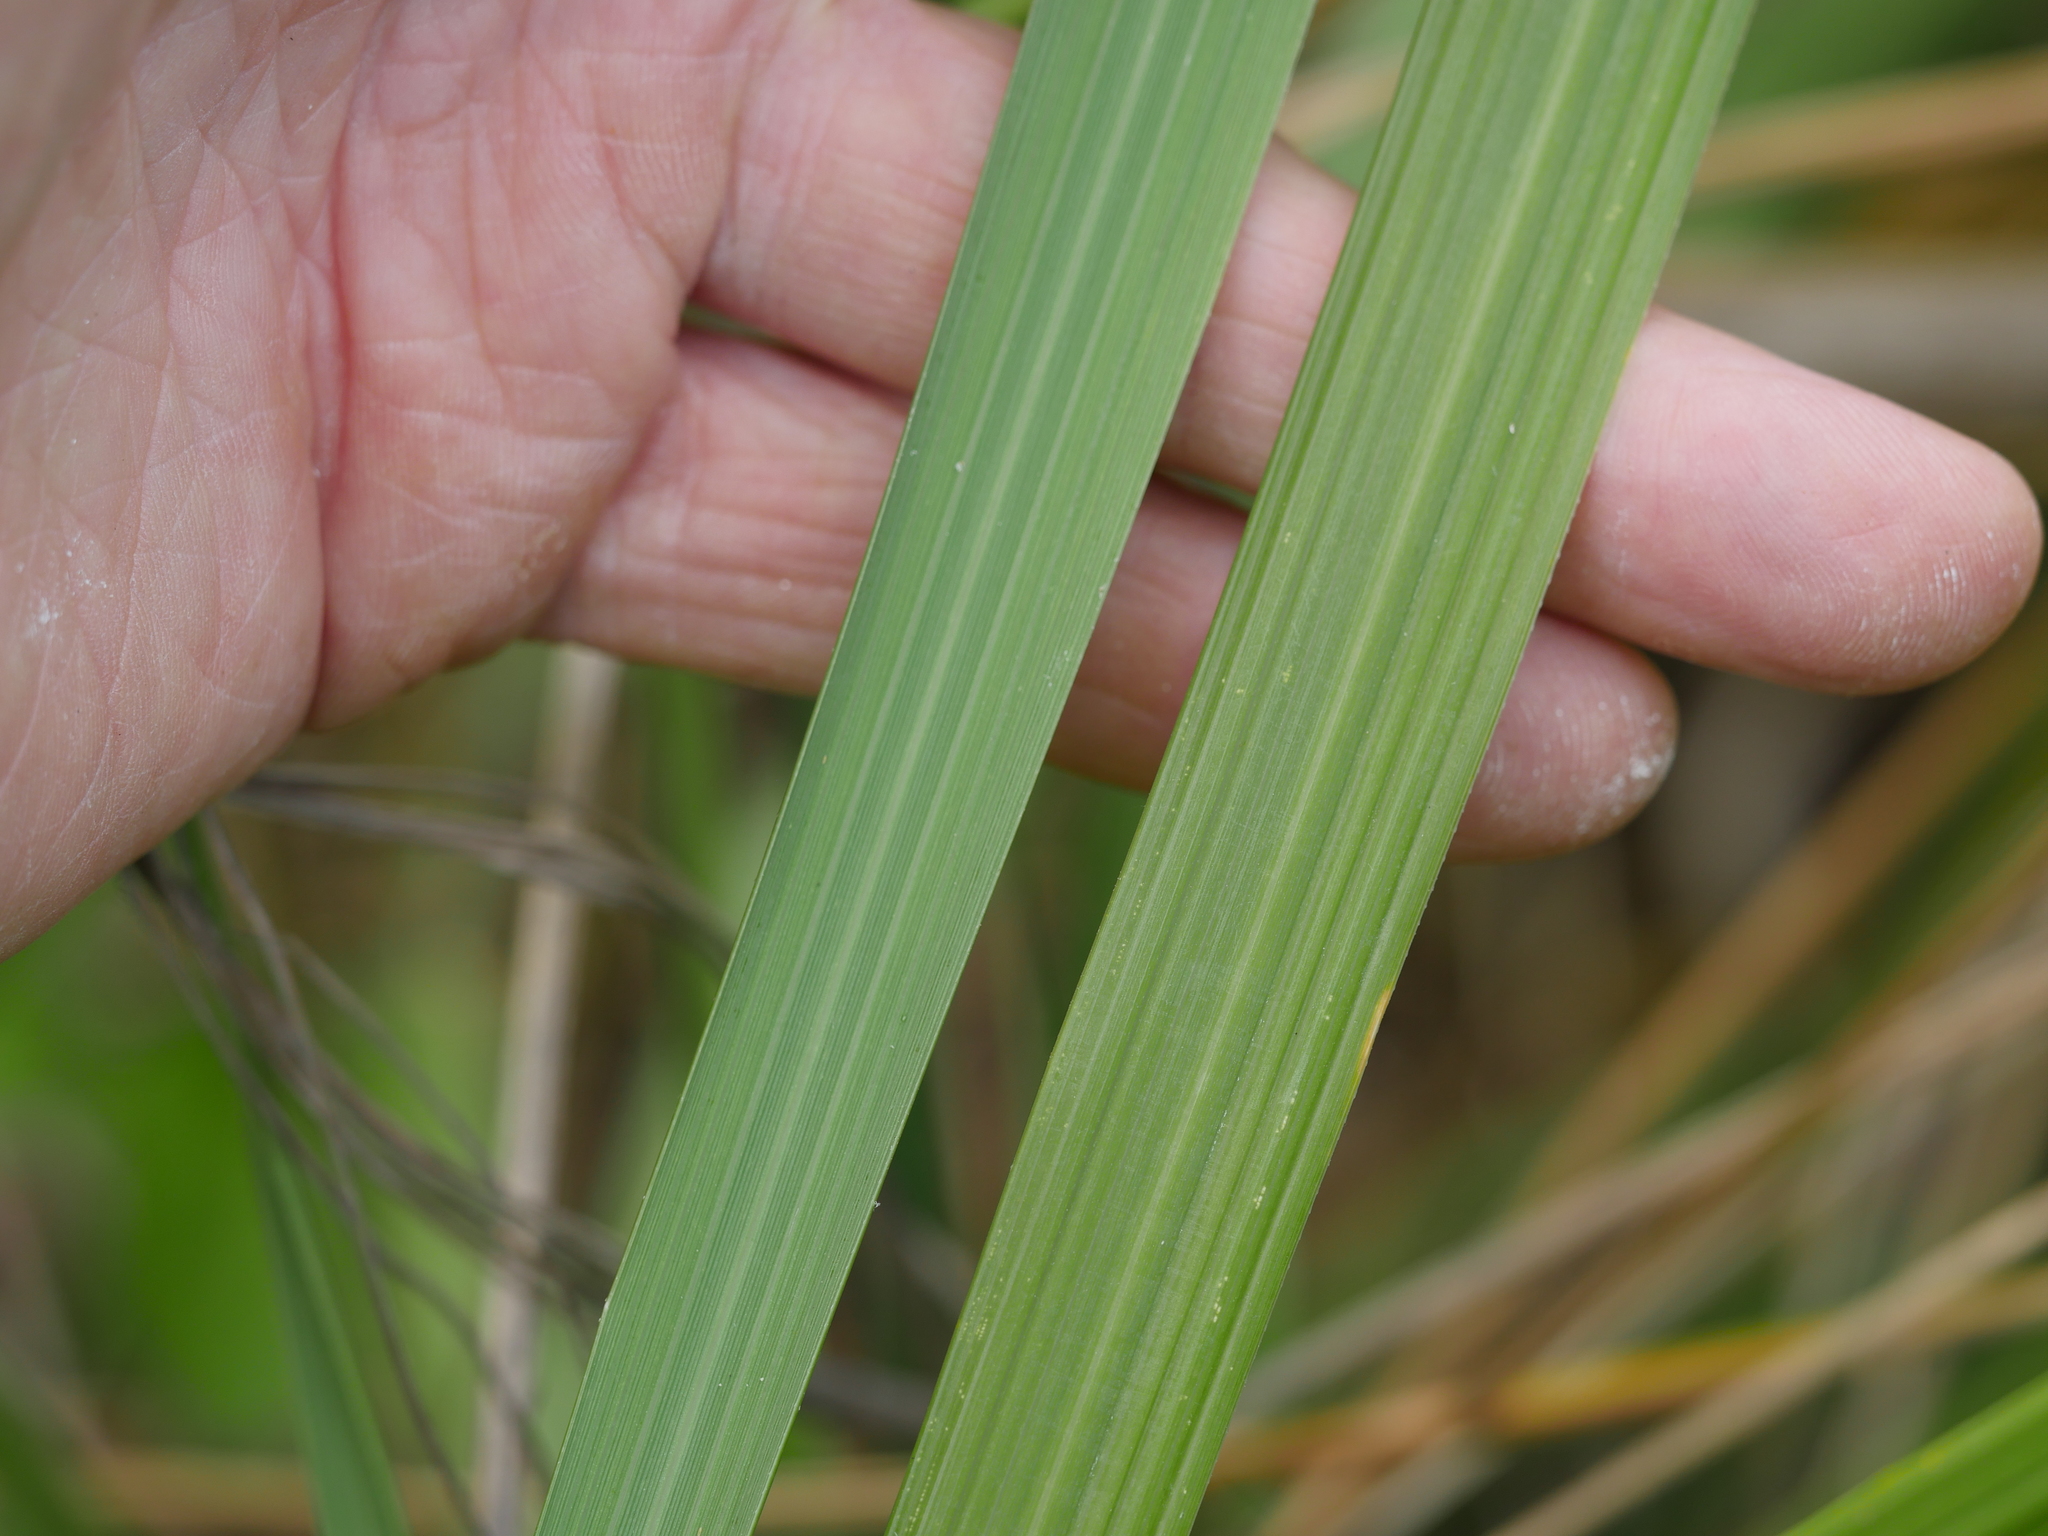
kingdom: Plantae
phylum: Tracheophyta
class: Liliopsida
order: Poales
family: Poaceae
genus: Austroderia
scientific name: Austroderia splendens
